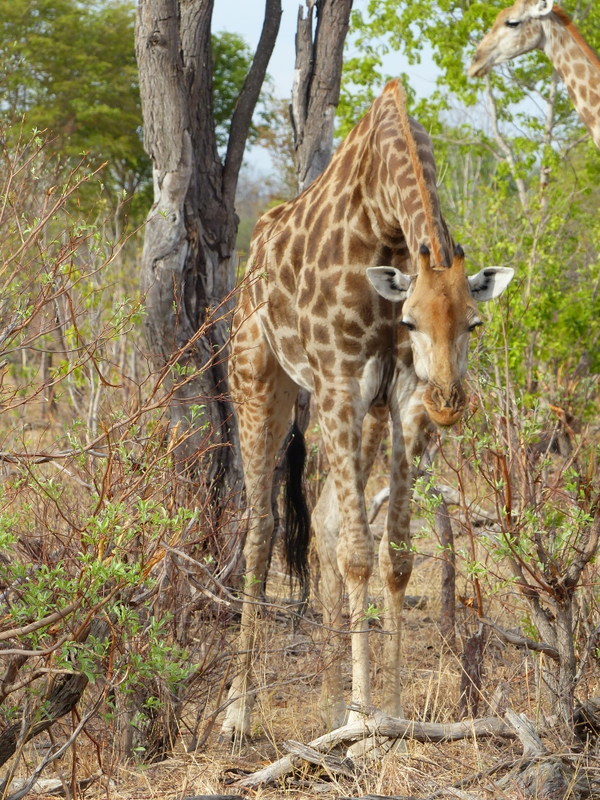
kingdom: Animalia
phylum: Chordata
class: Mammalia
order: Artiodactyla
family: Giraffidae
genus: Giraffa
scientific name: Giraffa giraffa
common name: Southern giraffe
